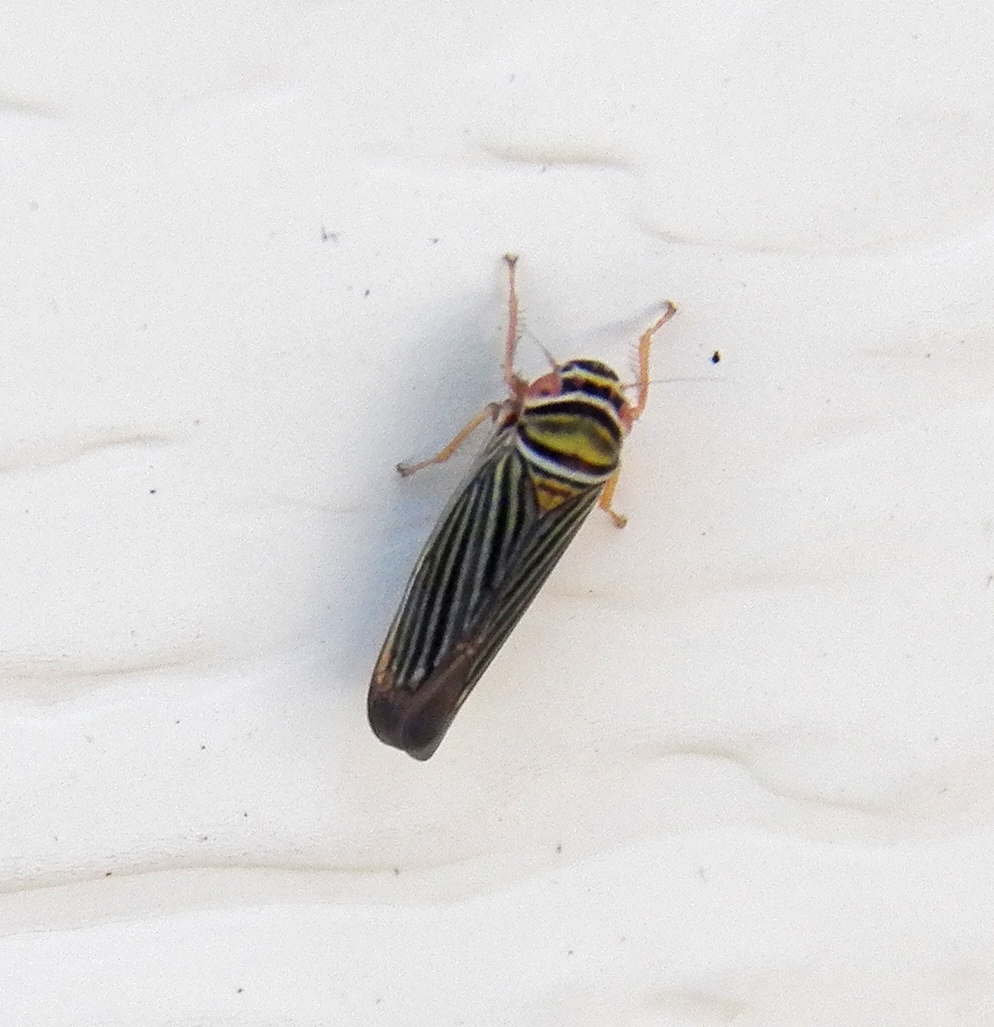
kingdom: Animalia
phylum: Arthropoda
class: Insecta
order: Hemiptera
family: Cicadellidae
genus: Tylozygus
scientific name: Tylozygus bifidus
